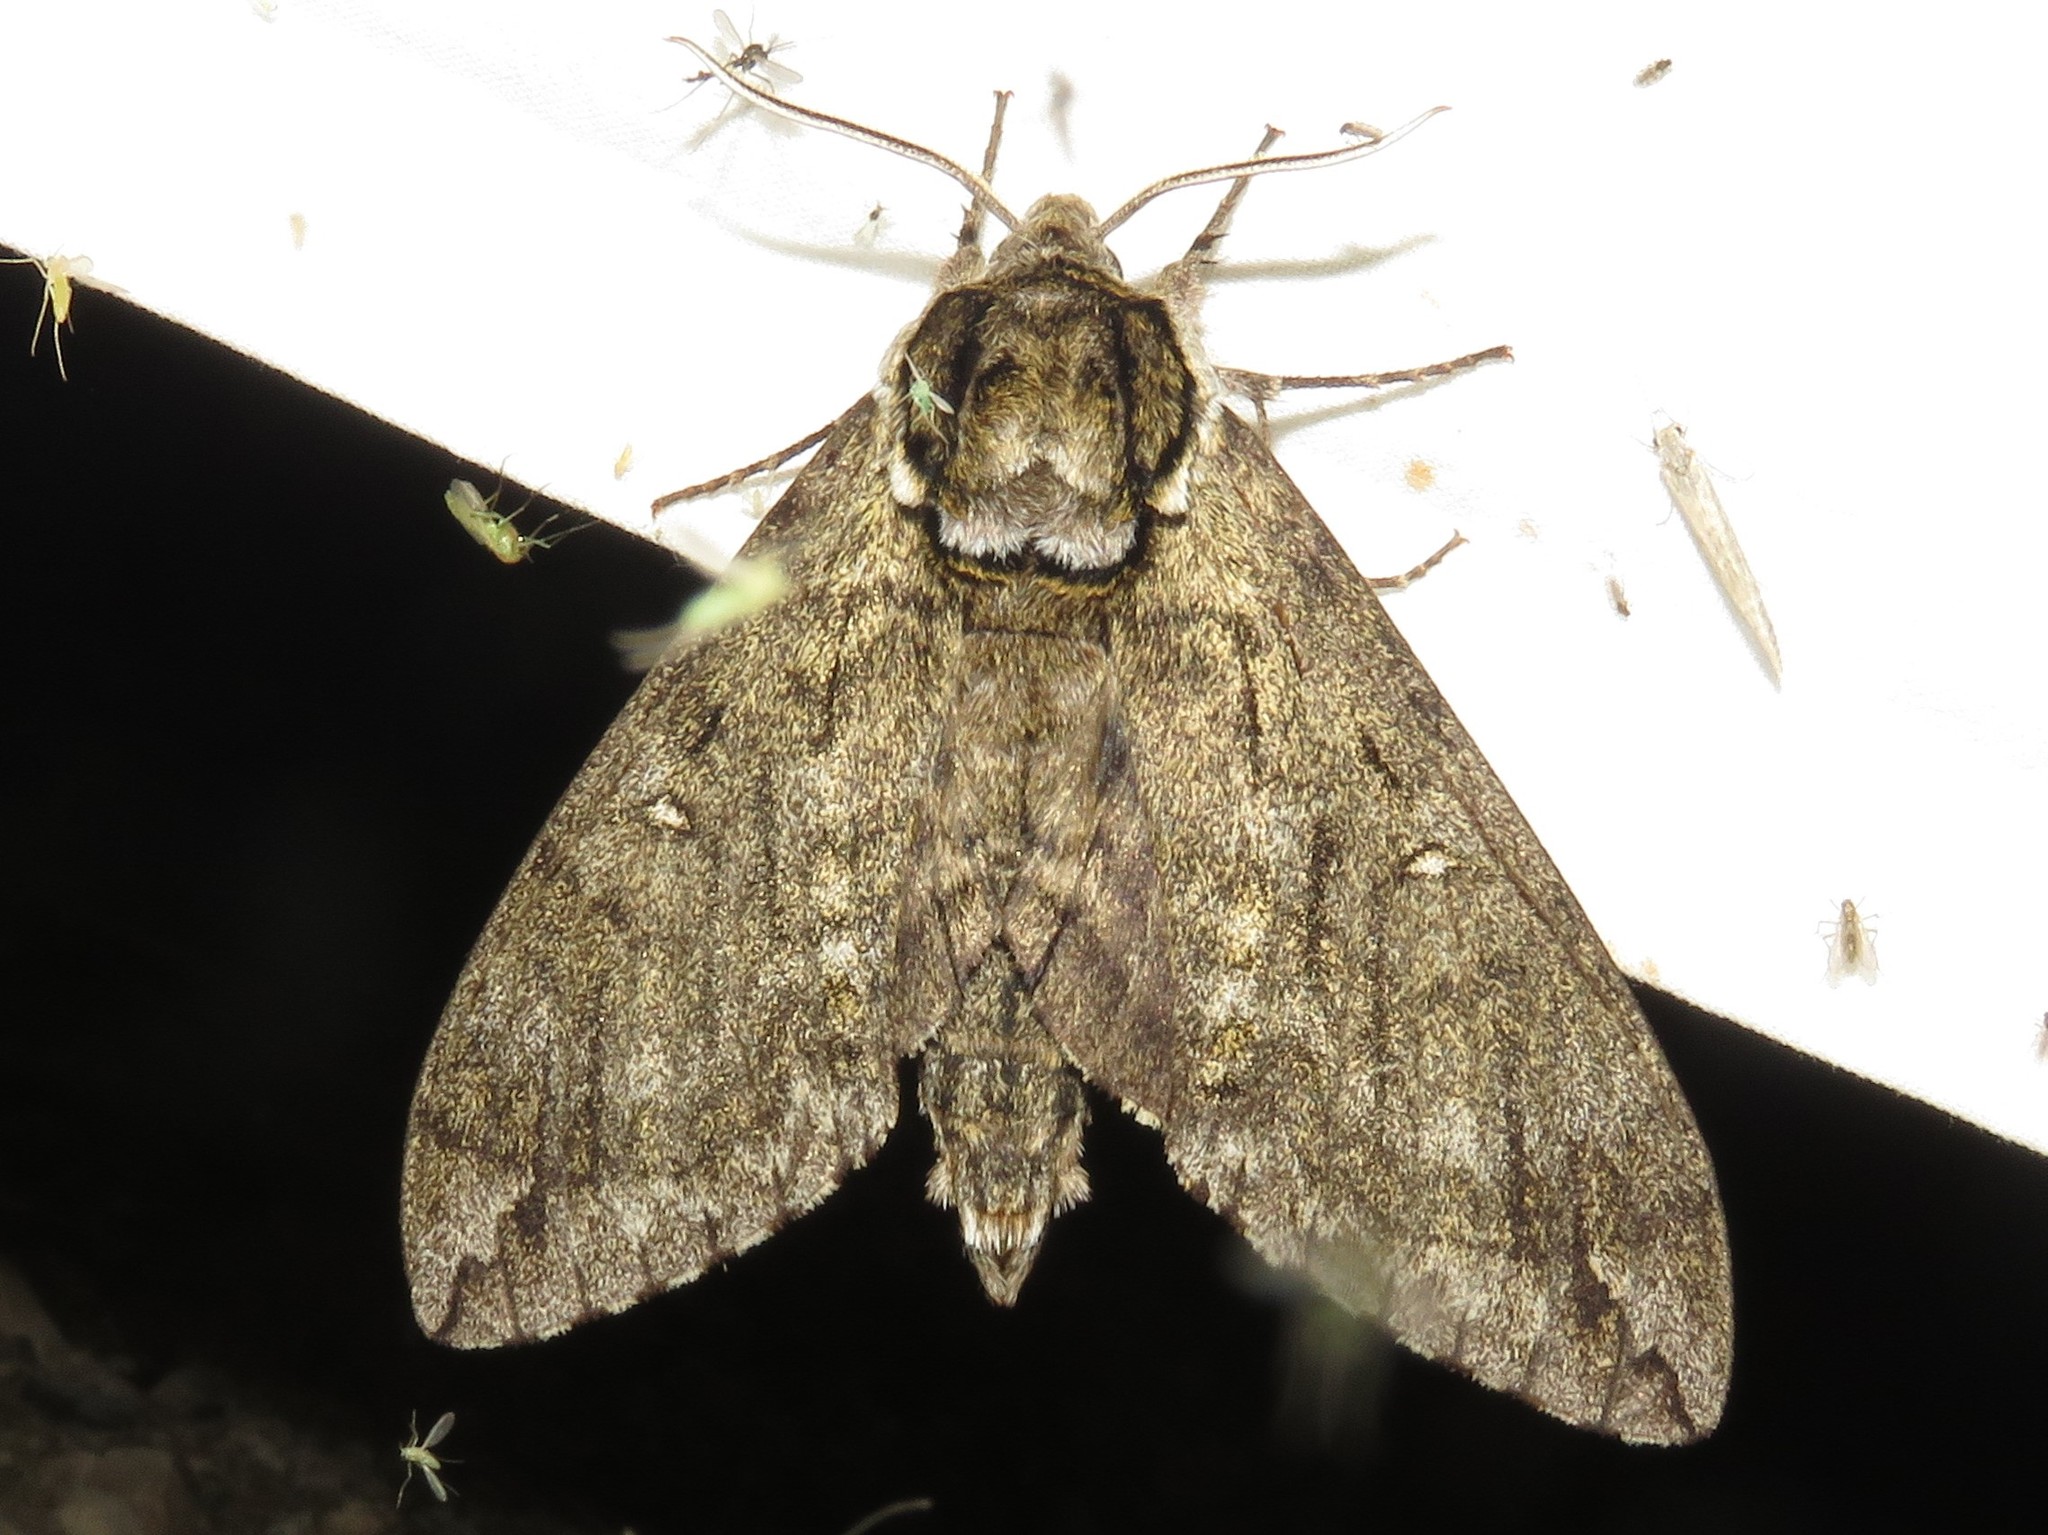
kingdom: Animalia
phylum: Arthropoda
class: Insecta
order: Lepidoptera
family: Sphingidae
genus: Ceratomia
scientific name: Ceratomia undulosa
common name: Waved sphinx
